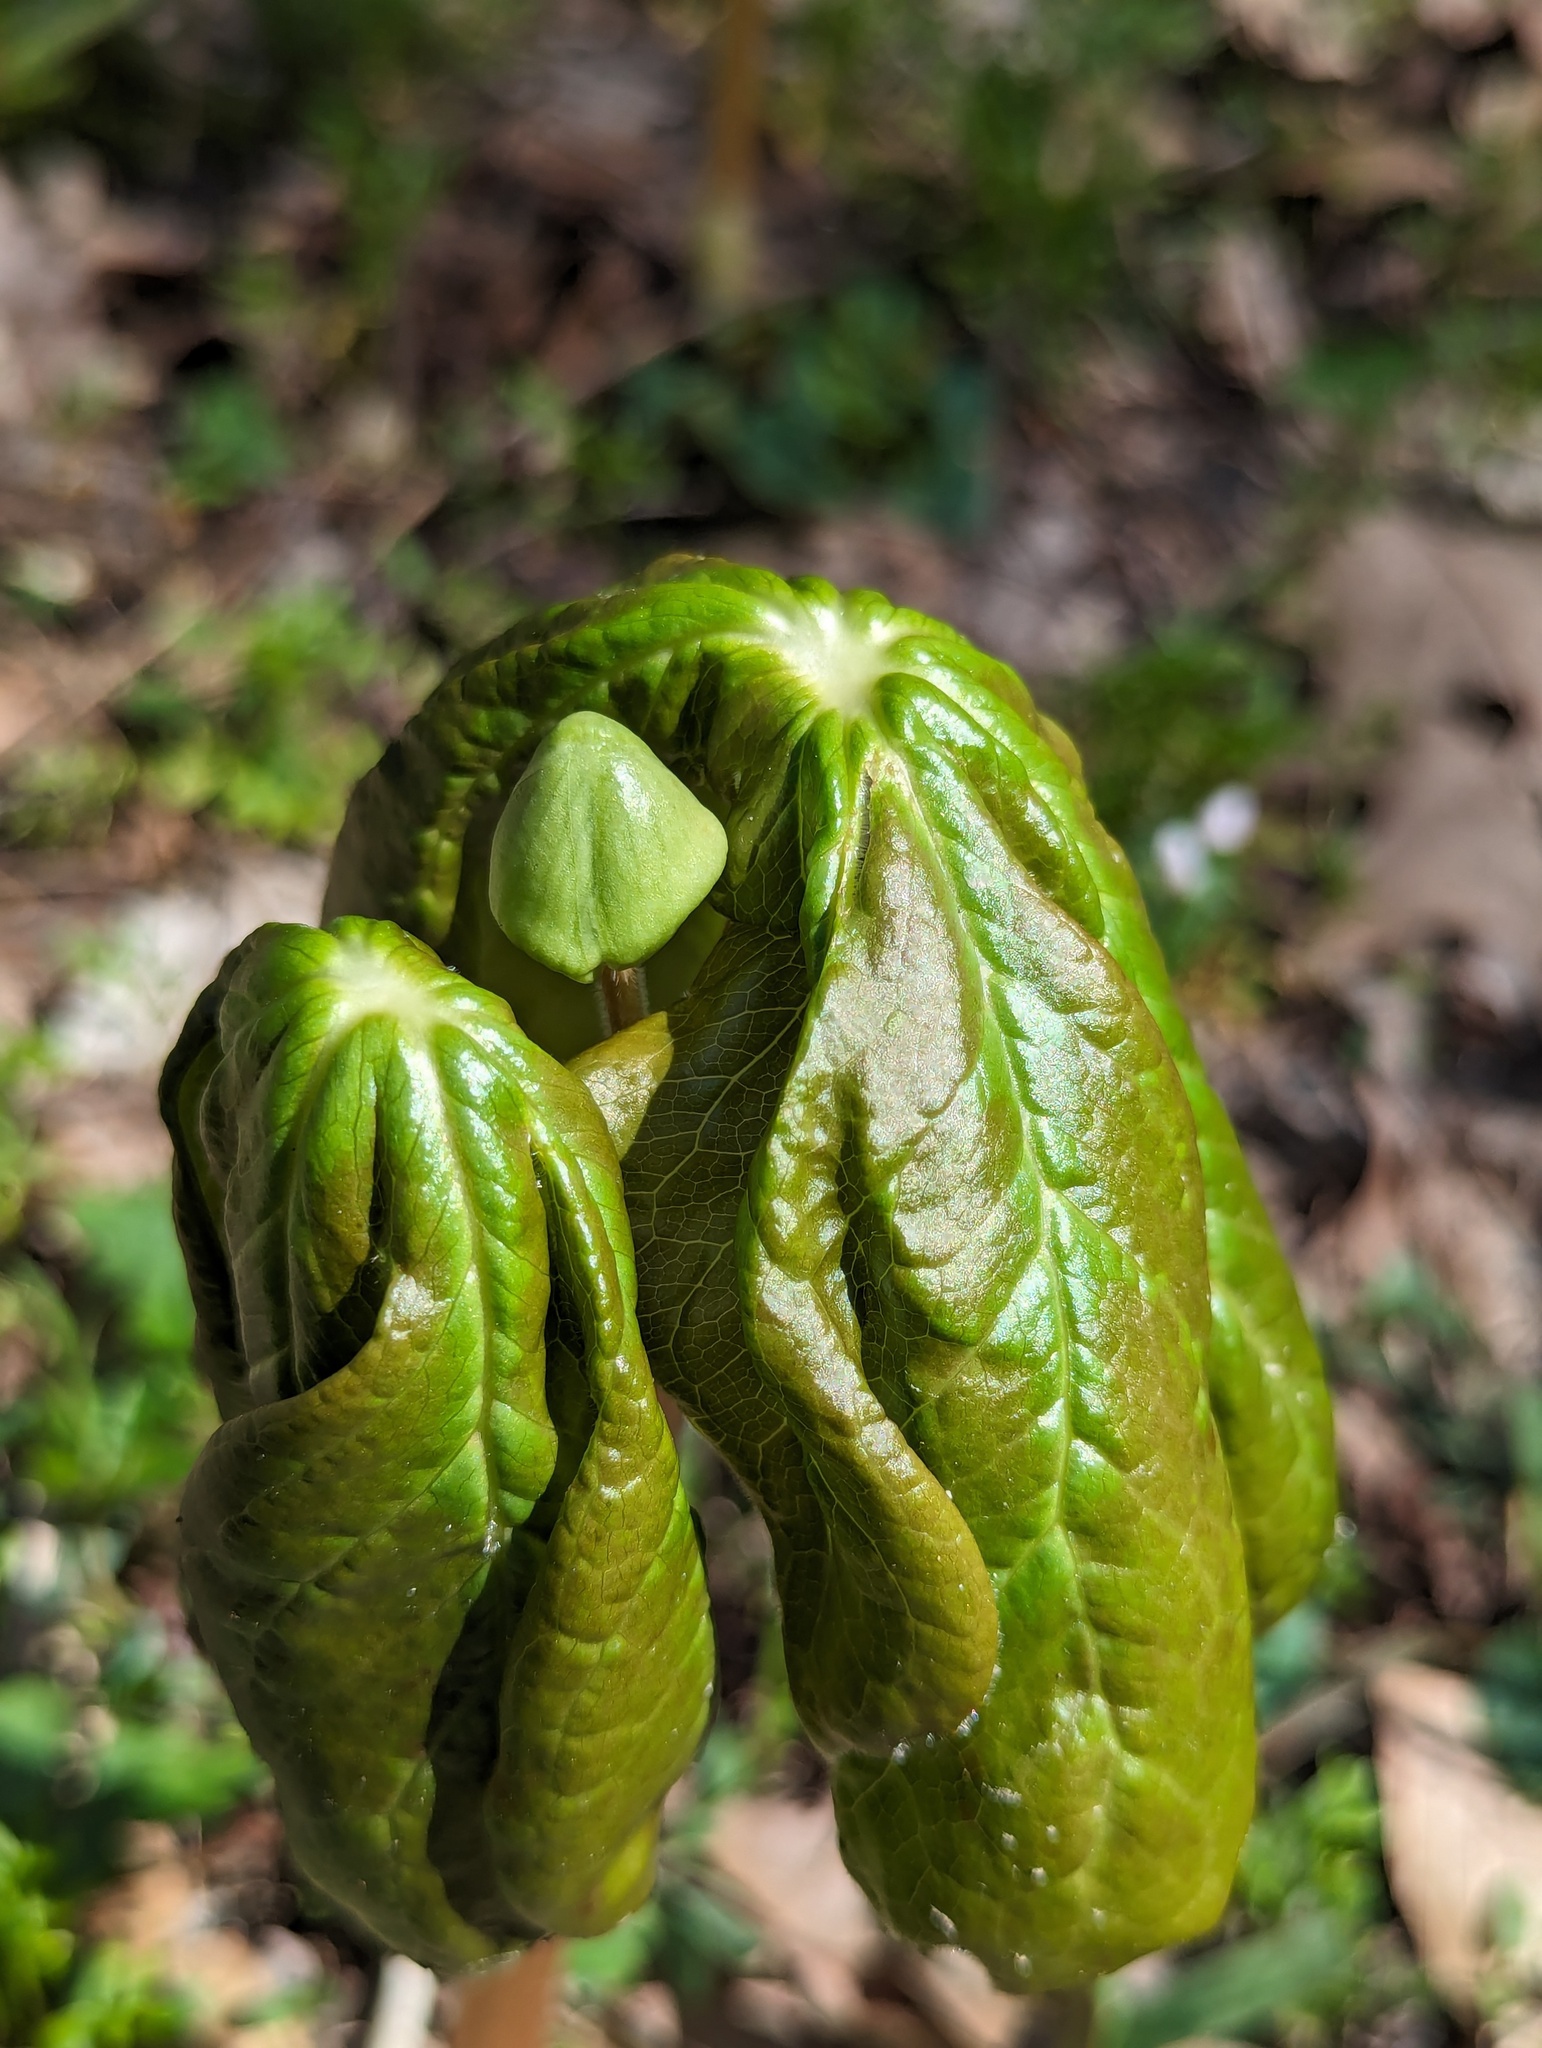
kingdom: Plantae
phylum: Tracheophyta
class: Magnoliopsida
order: Ranunculales
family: Berberidaceae
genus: Podophyllum
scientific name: Podophyllum peltatum
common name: Wild mandrake
